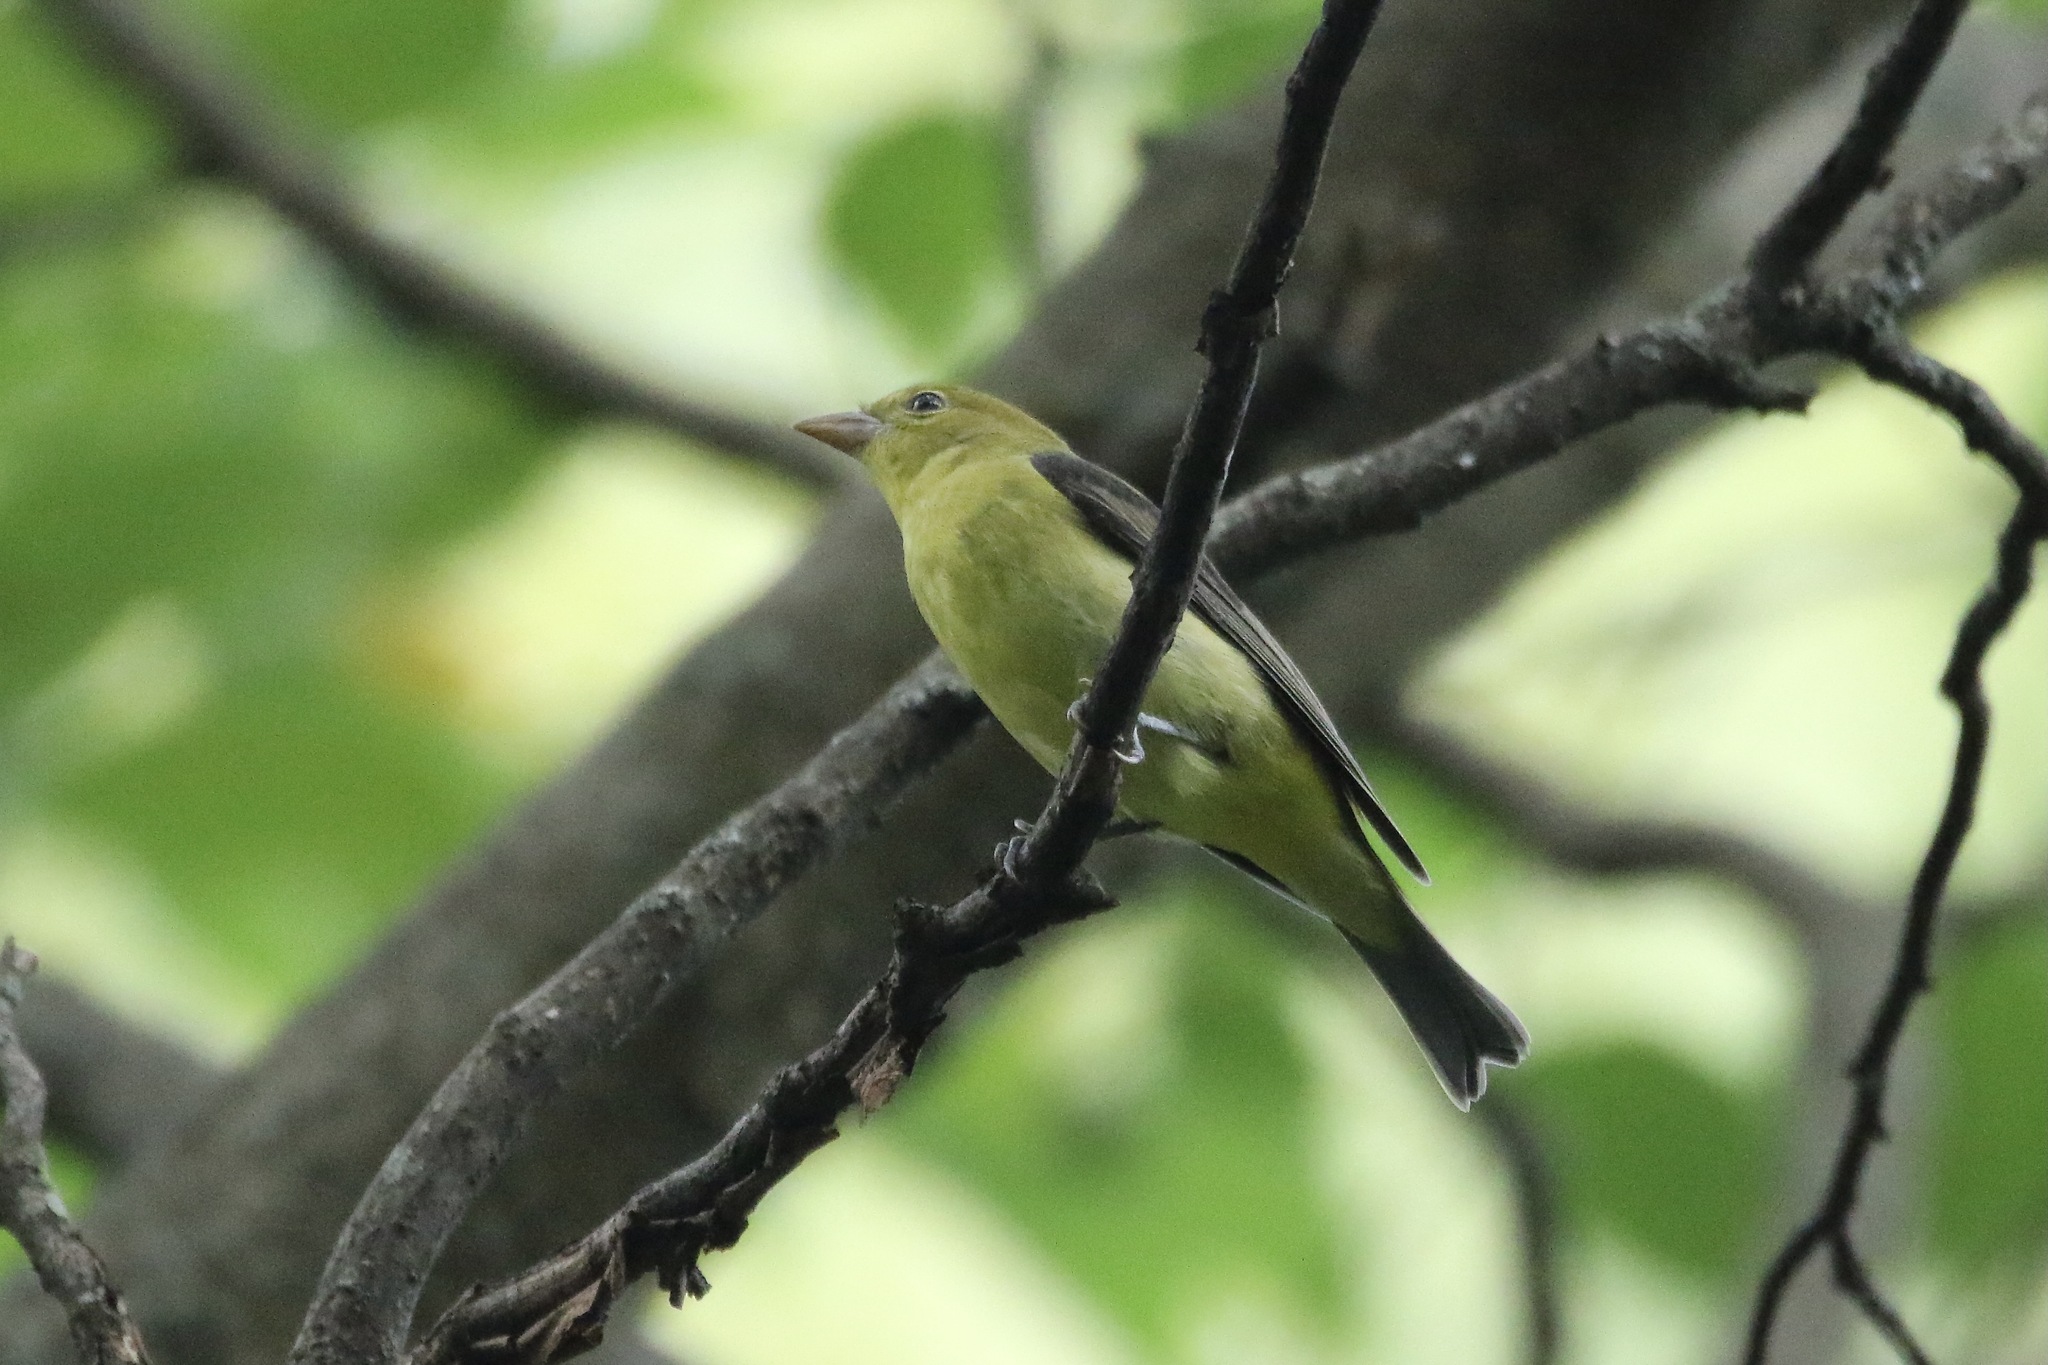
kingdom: Animalia
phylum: Chordata
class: Aves
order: Passeriformes
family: Cardinalidae
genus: Piranga
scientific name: Piranga olivacea
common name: Scarlet tanager
